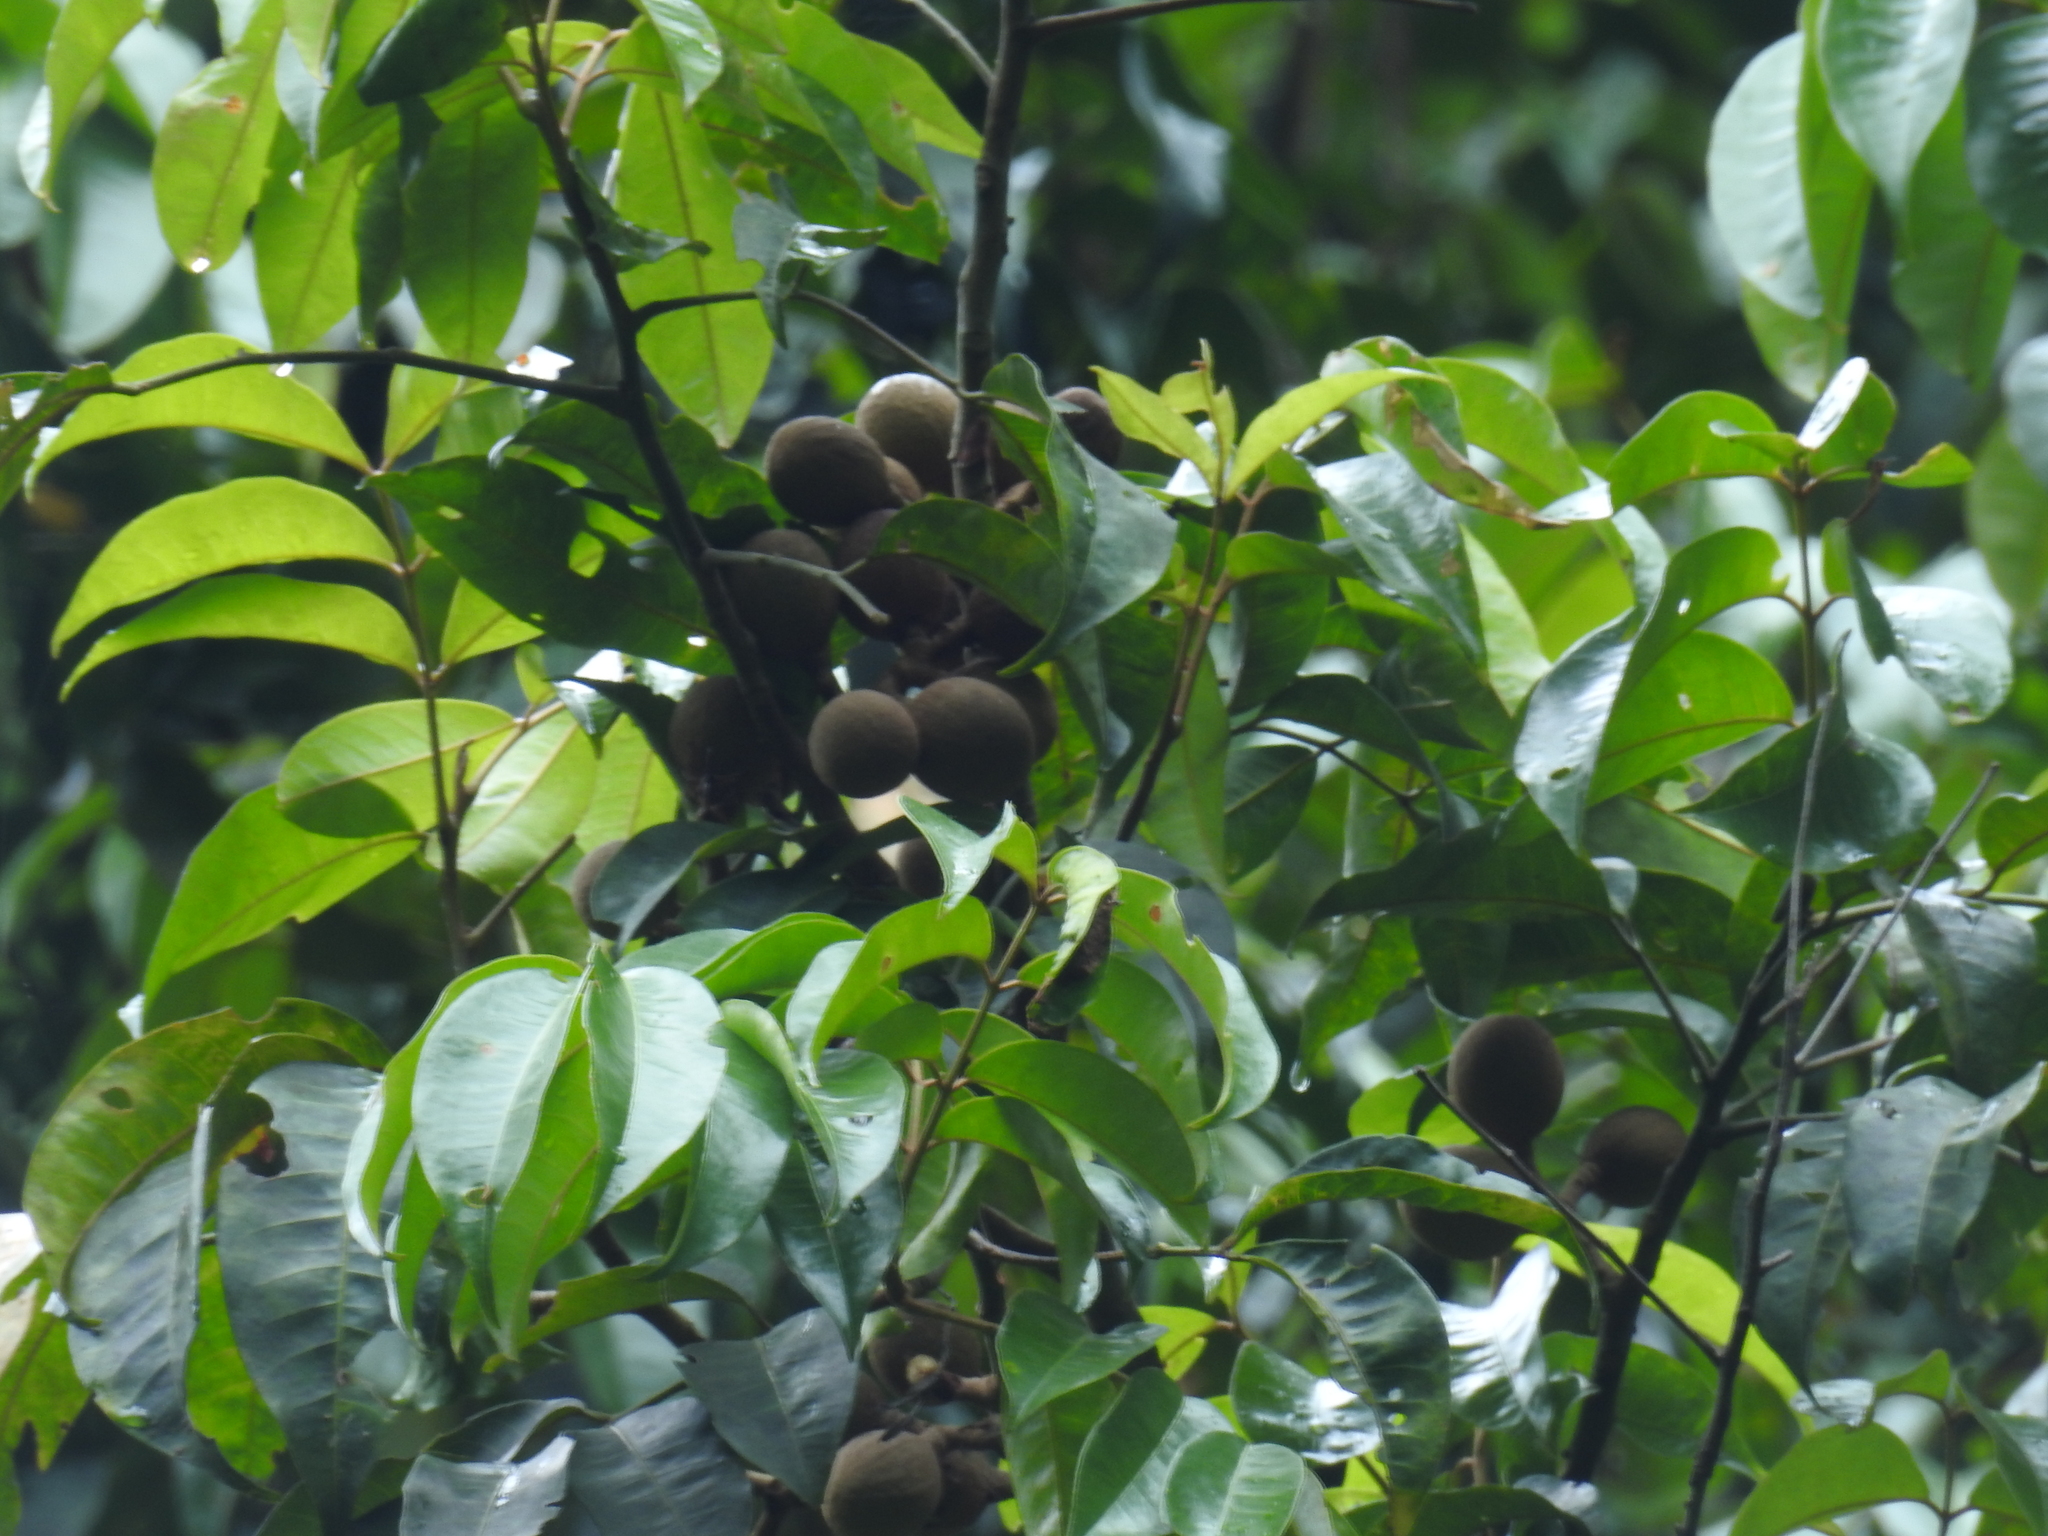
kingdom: Plantae
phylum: Tracheophyta
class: Magnoliopsida
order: Sapindales
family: Meliaceae
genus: Aglaia
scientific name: Aglaia elaeagnoidea
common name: Droopyleaf
